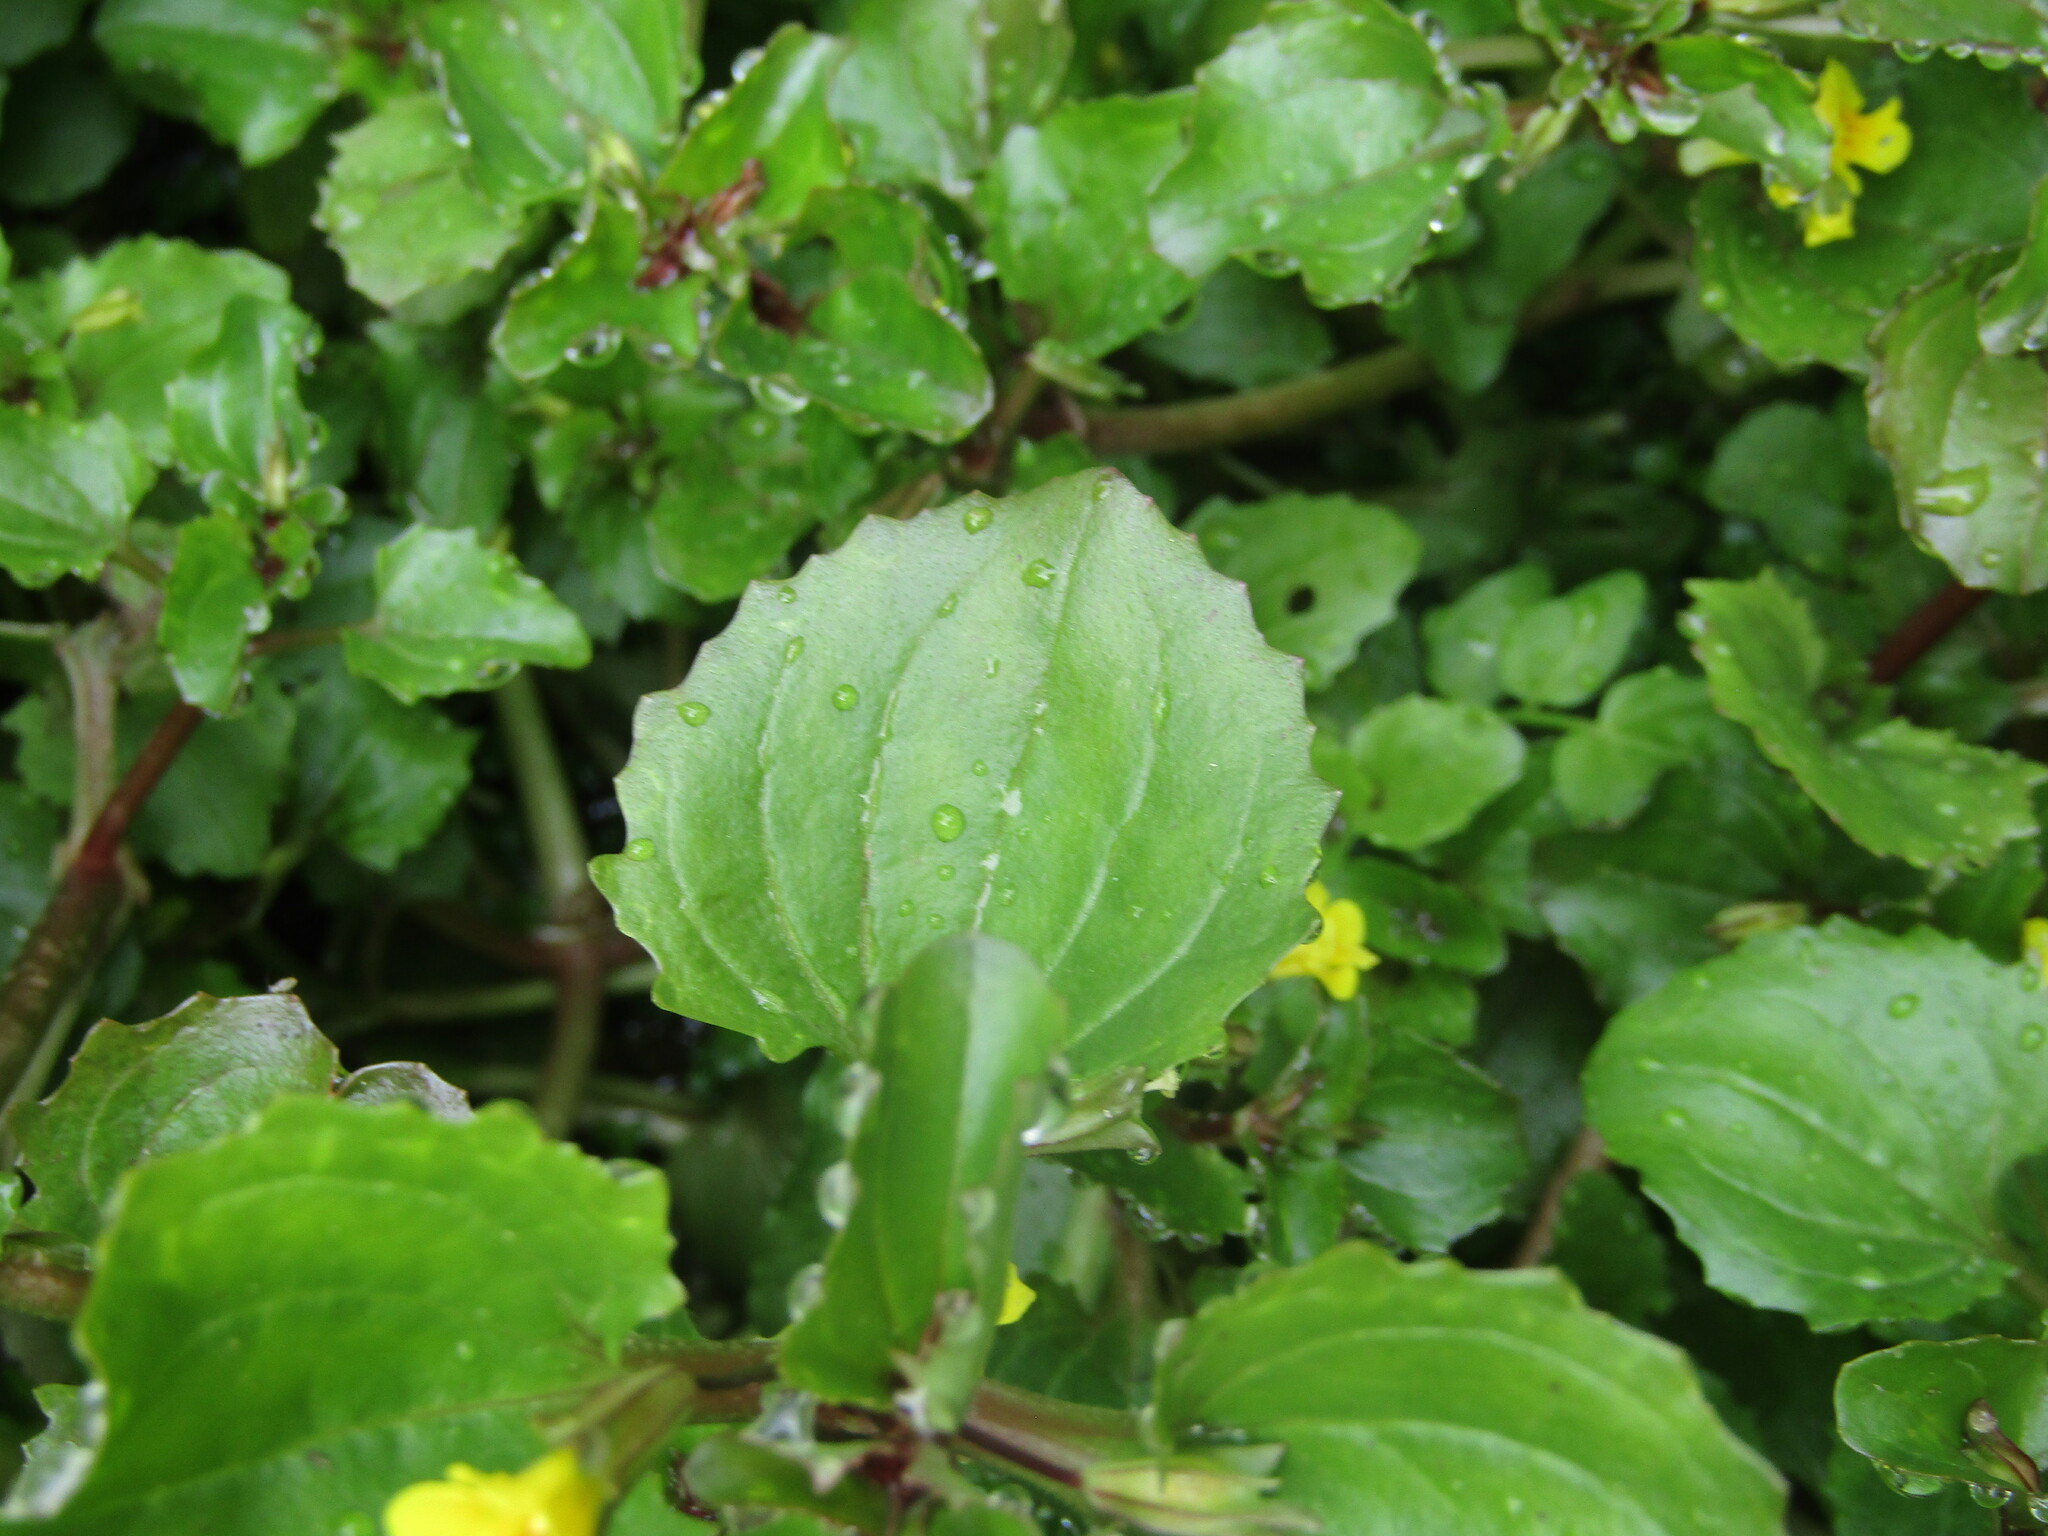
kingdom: Plantae
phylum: Tracheophyta
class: Magnoliopsida
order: Lamiales
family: Phrymaceae
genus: Erythranthe
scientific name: Erythranthe andicola
